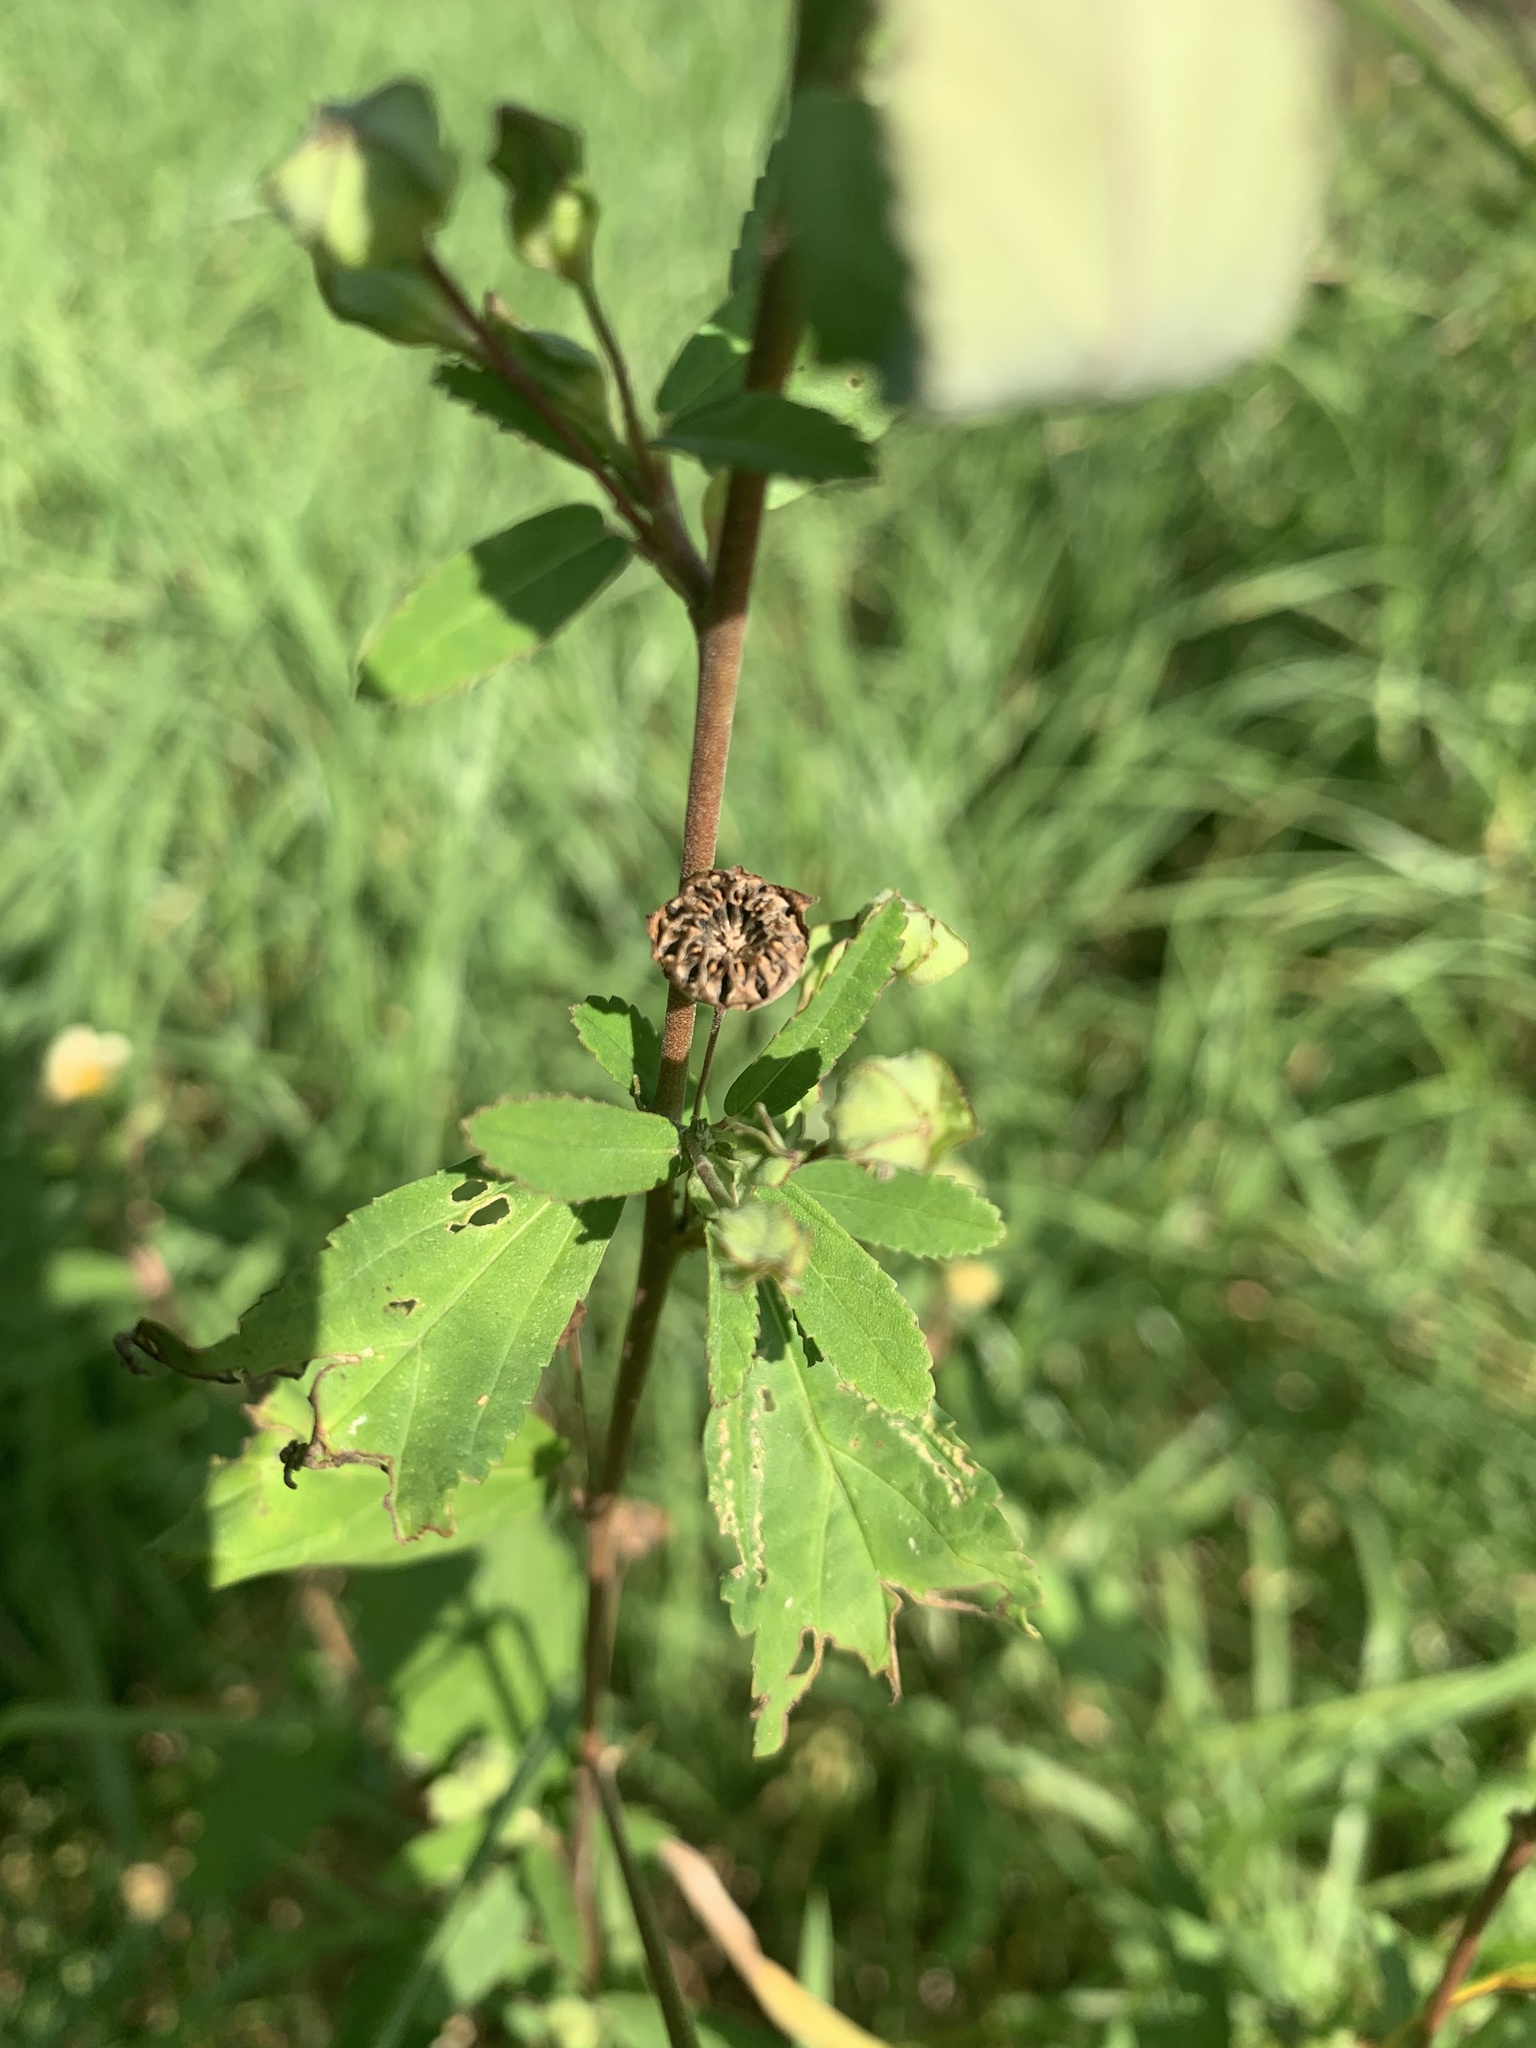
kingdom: Plantae
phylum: Tracheophyta
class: Magnoliopsida
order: Malvales
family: Malvaceae
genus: Sida
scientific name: Sida rhombifolia
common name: Queensland-hemp
